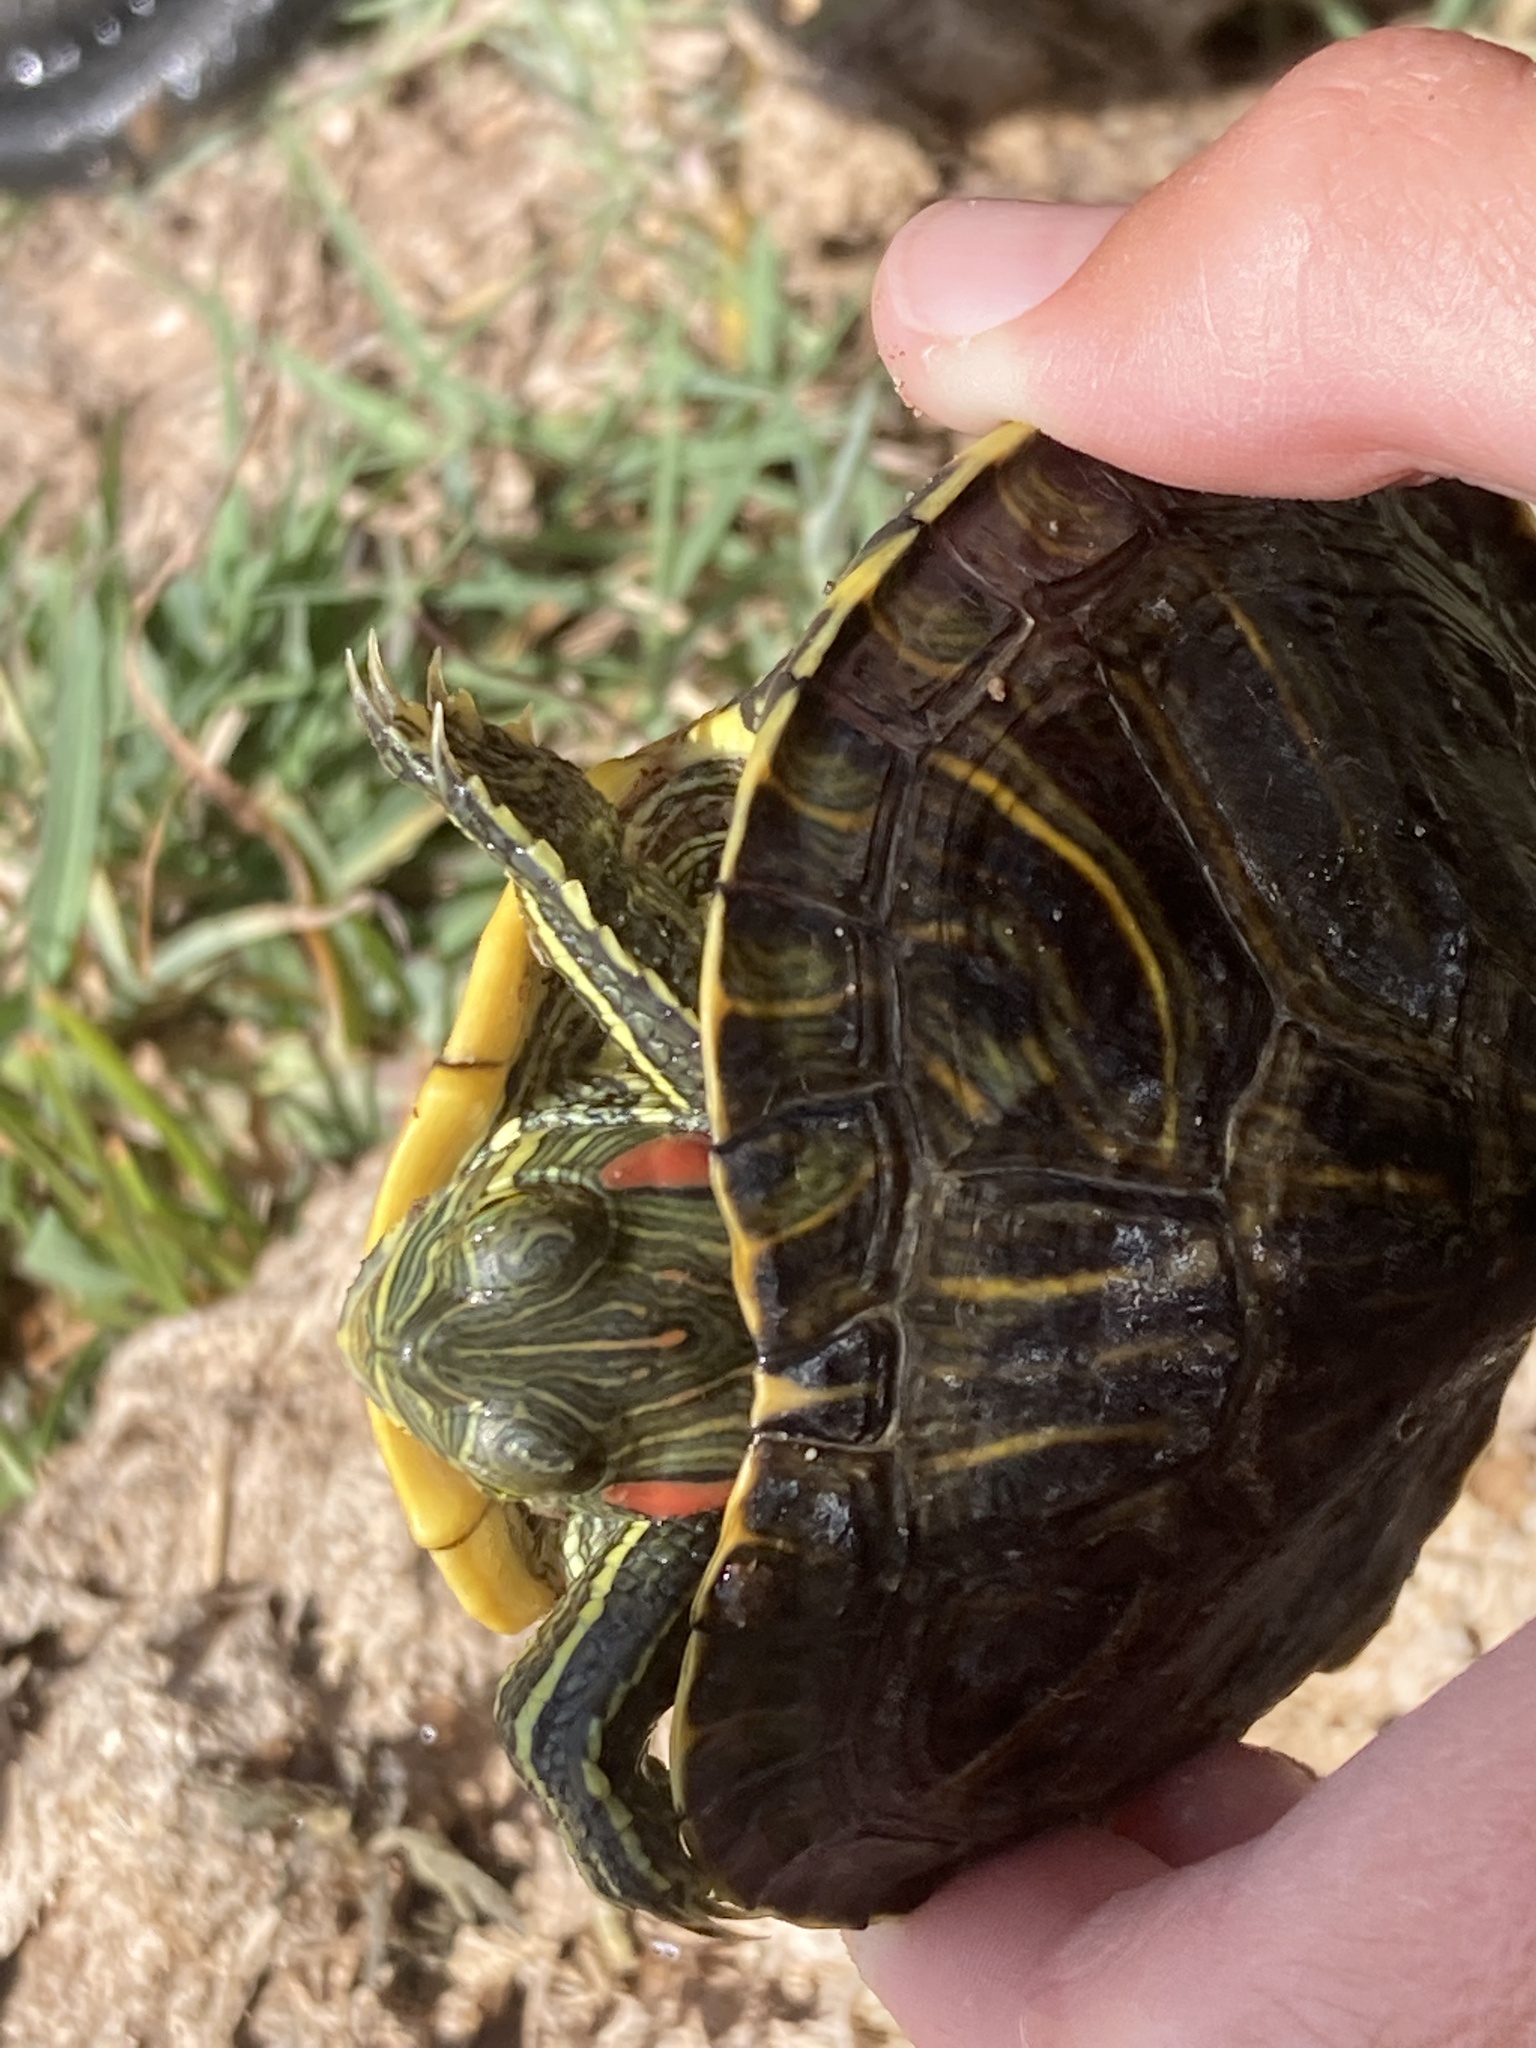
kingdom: Animalia
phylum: Chordata
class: Testudines
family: Emydidae
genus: Trachemys
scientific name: Trachemys scripta
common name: Slider
